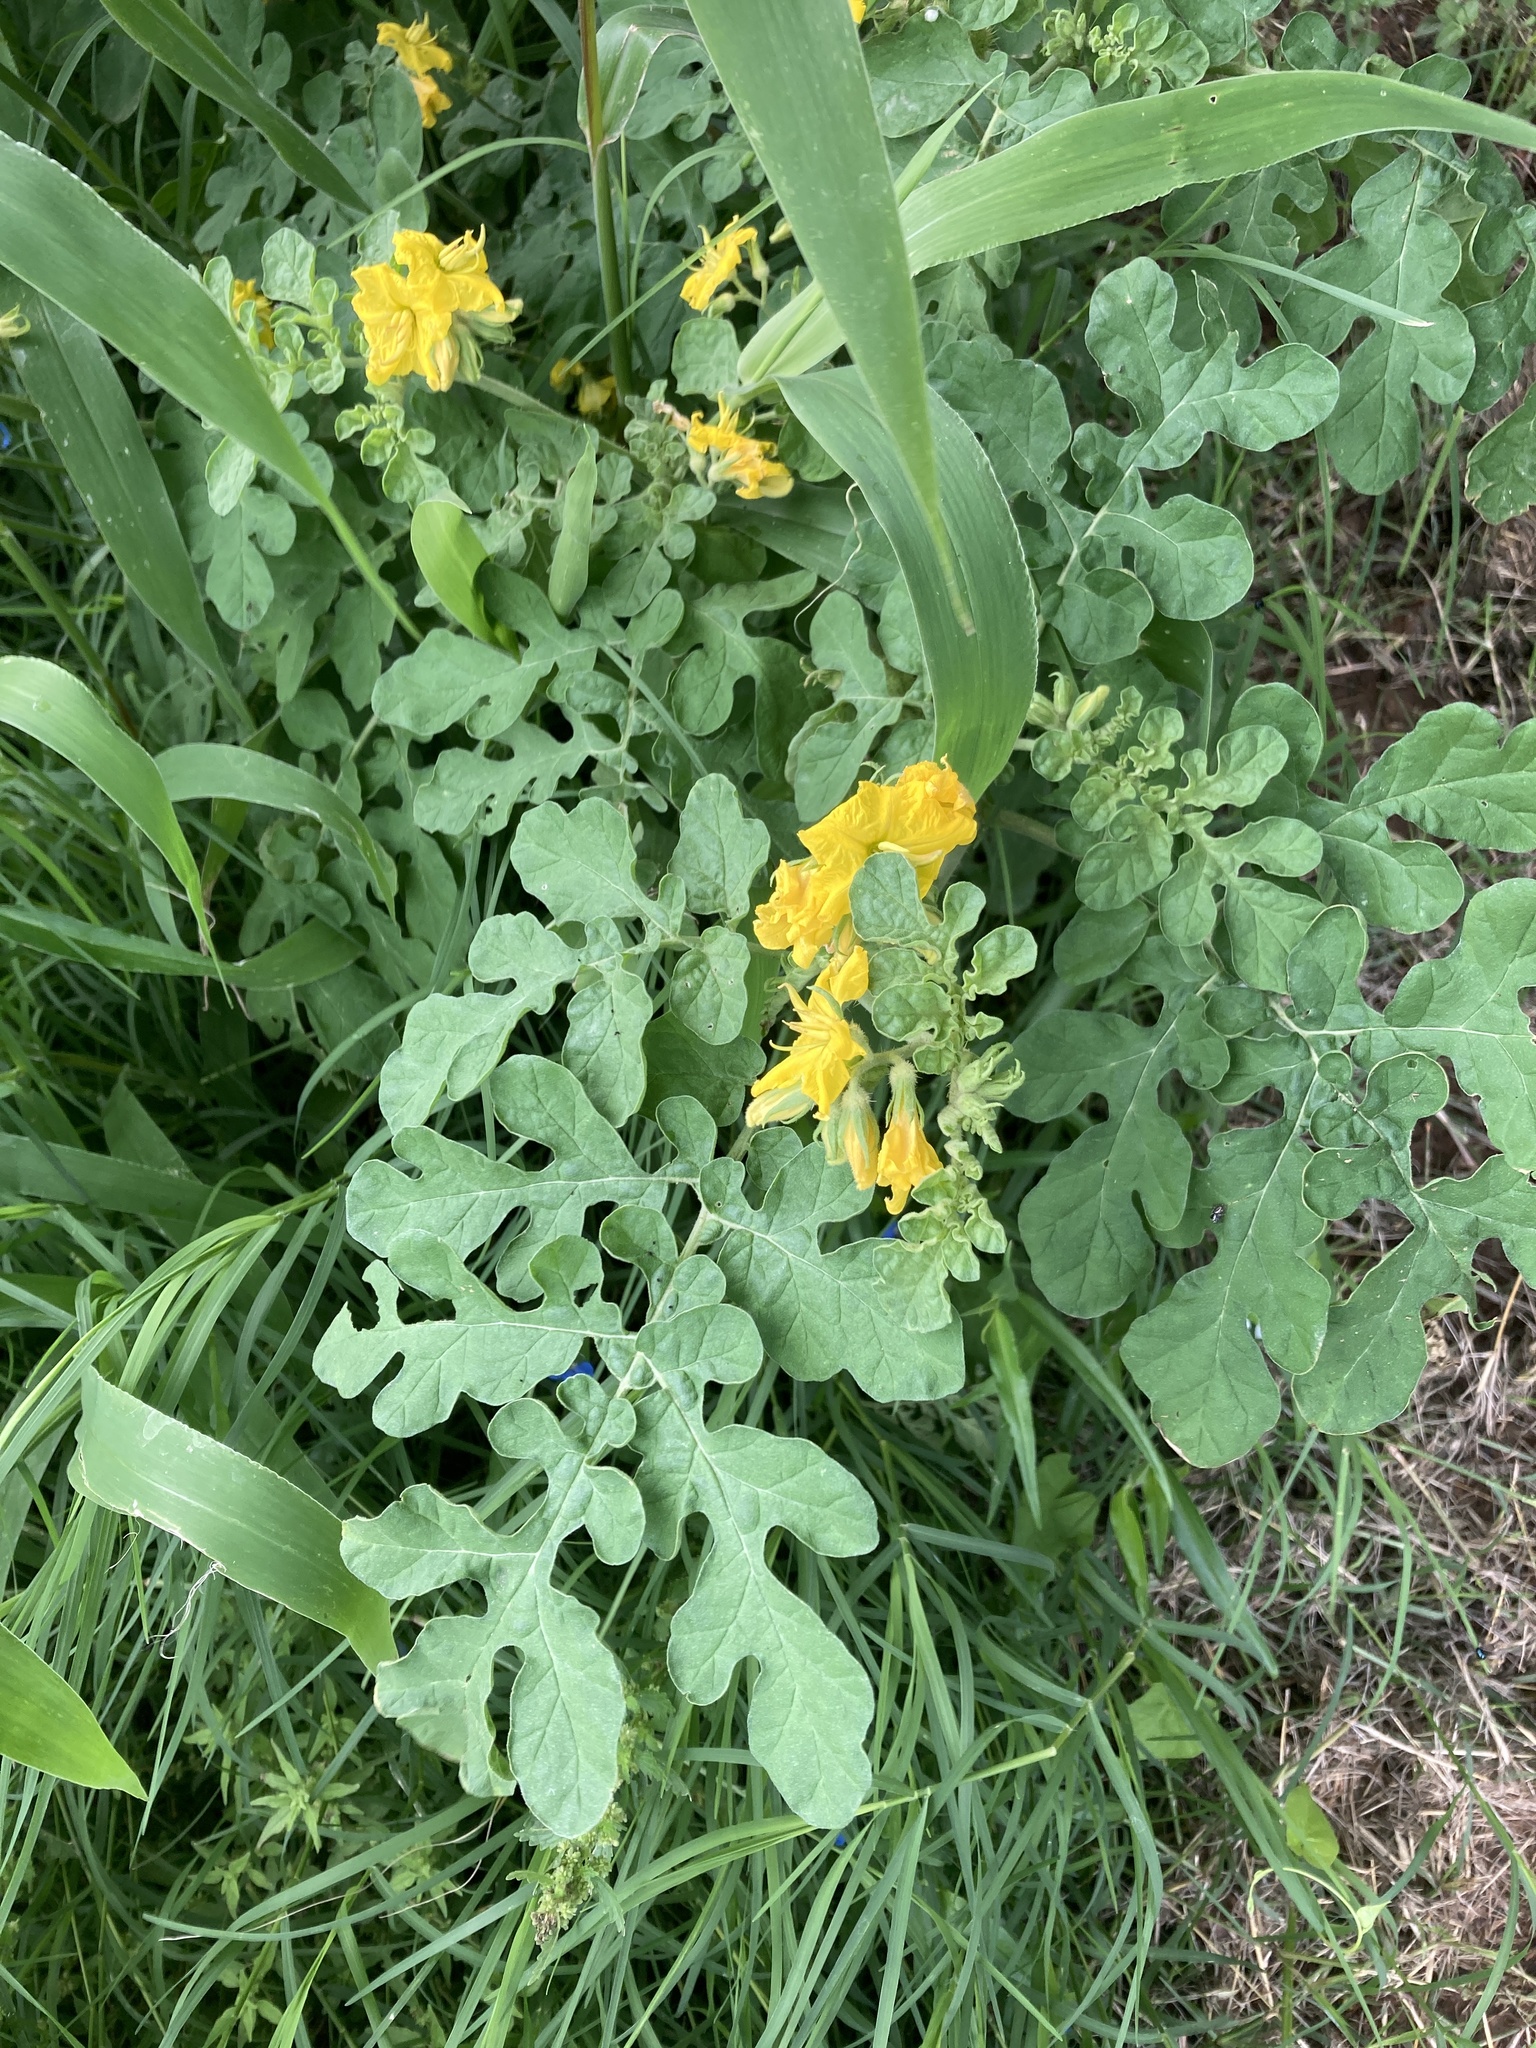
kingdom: Plantae
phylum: Tracheophyta
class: Magnoliopsida
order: Solanales
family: Solanaceae
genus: Solanum
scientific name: Solanum angustifolium
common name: Buffalobur nightshade
